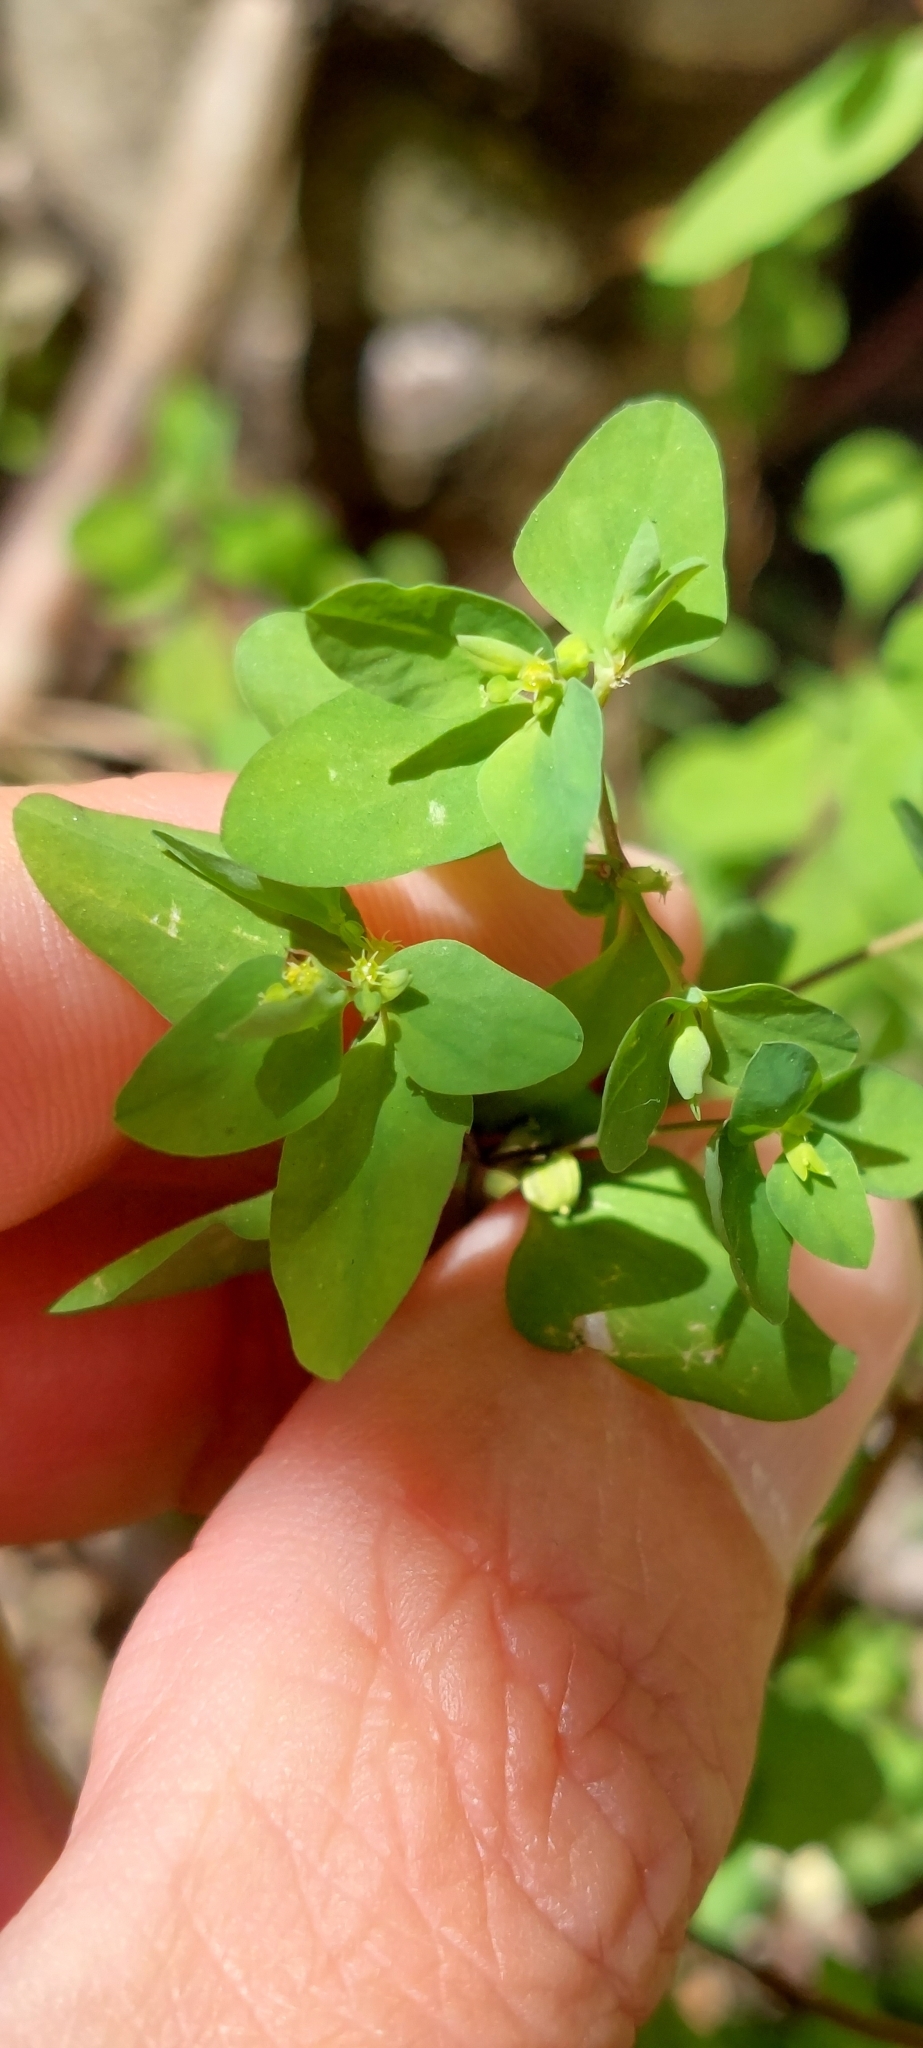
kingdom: Plantae
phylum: Tracheophyta
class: Magnoliopsida
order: Malpighiales
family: Euphorbiaceae
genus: Euphorbia
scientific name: Euphorbia peplus
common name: Petty spurge
